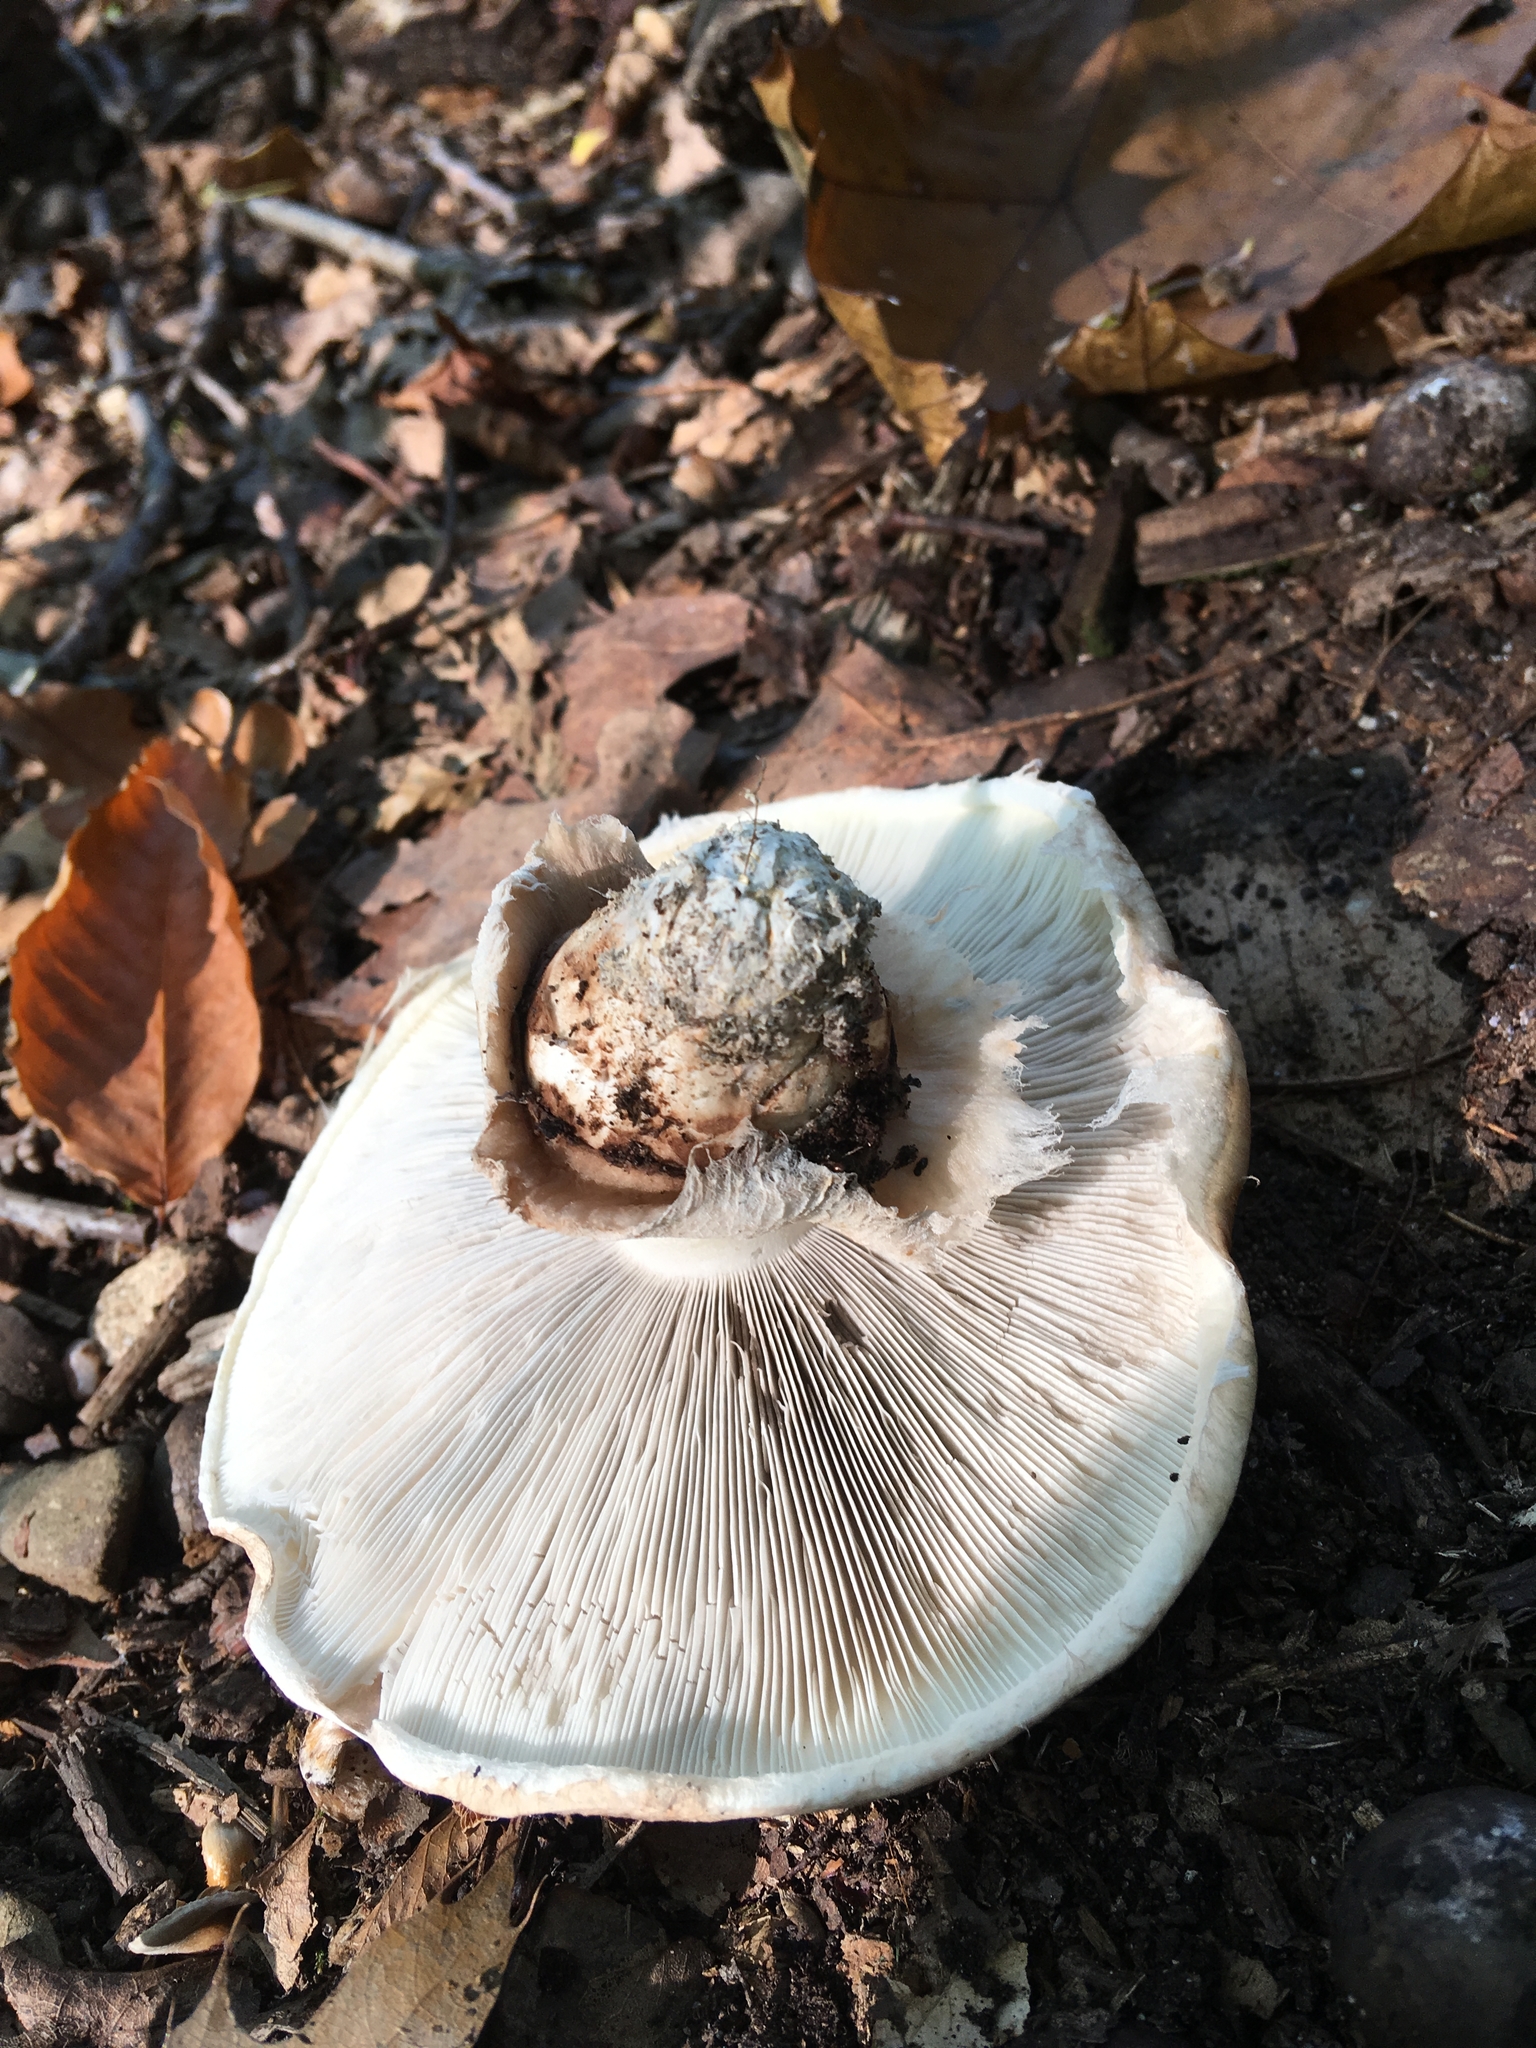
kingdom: Fungi
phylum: Basidiomycota
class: Agaricomycetes
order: Agaricales
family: Tricholomataceae
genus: Tricholoma
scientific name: Tricholoma caligatum
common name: True booted knight
